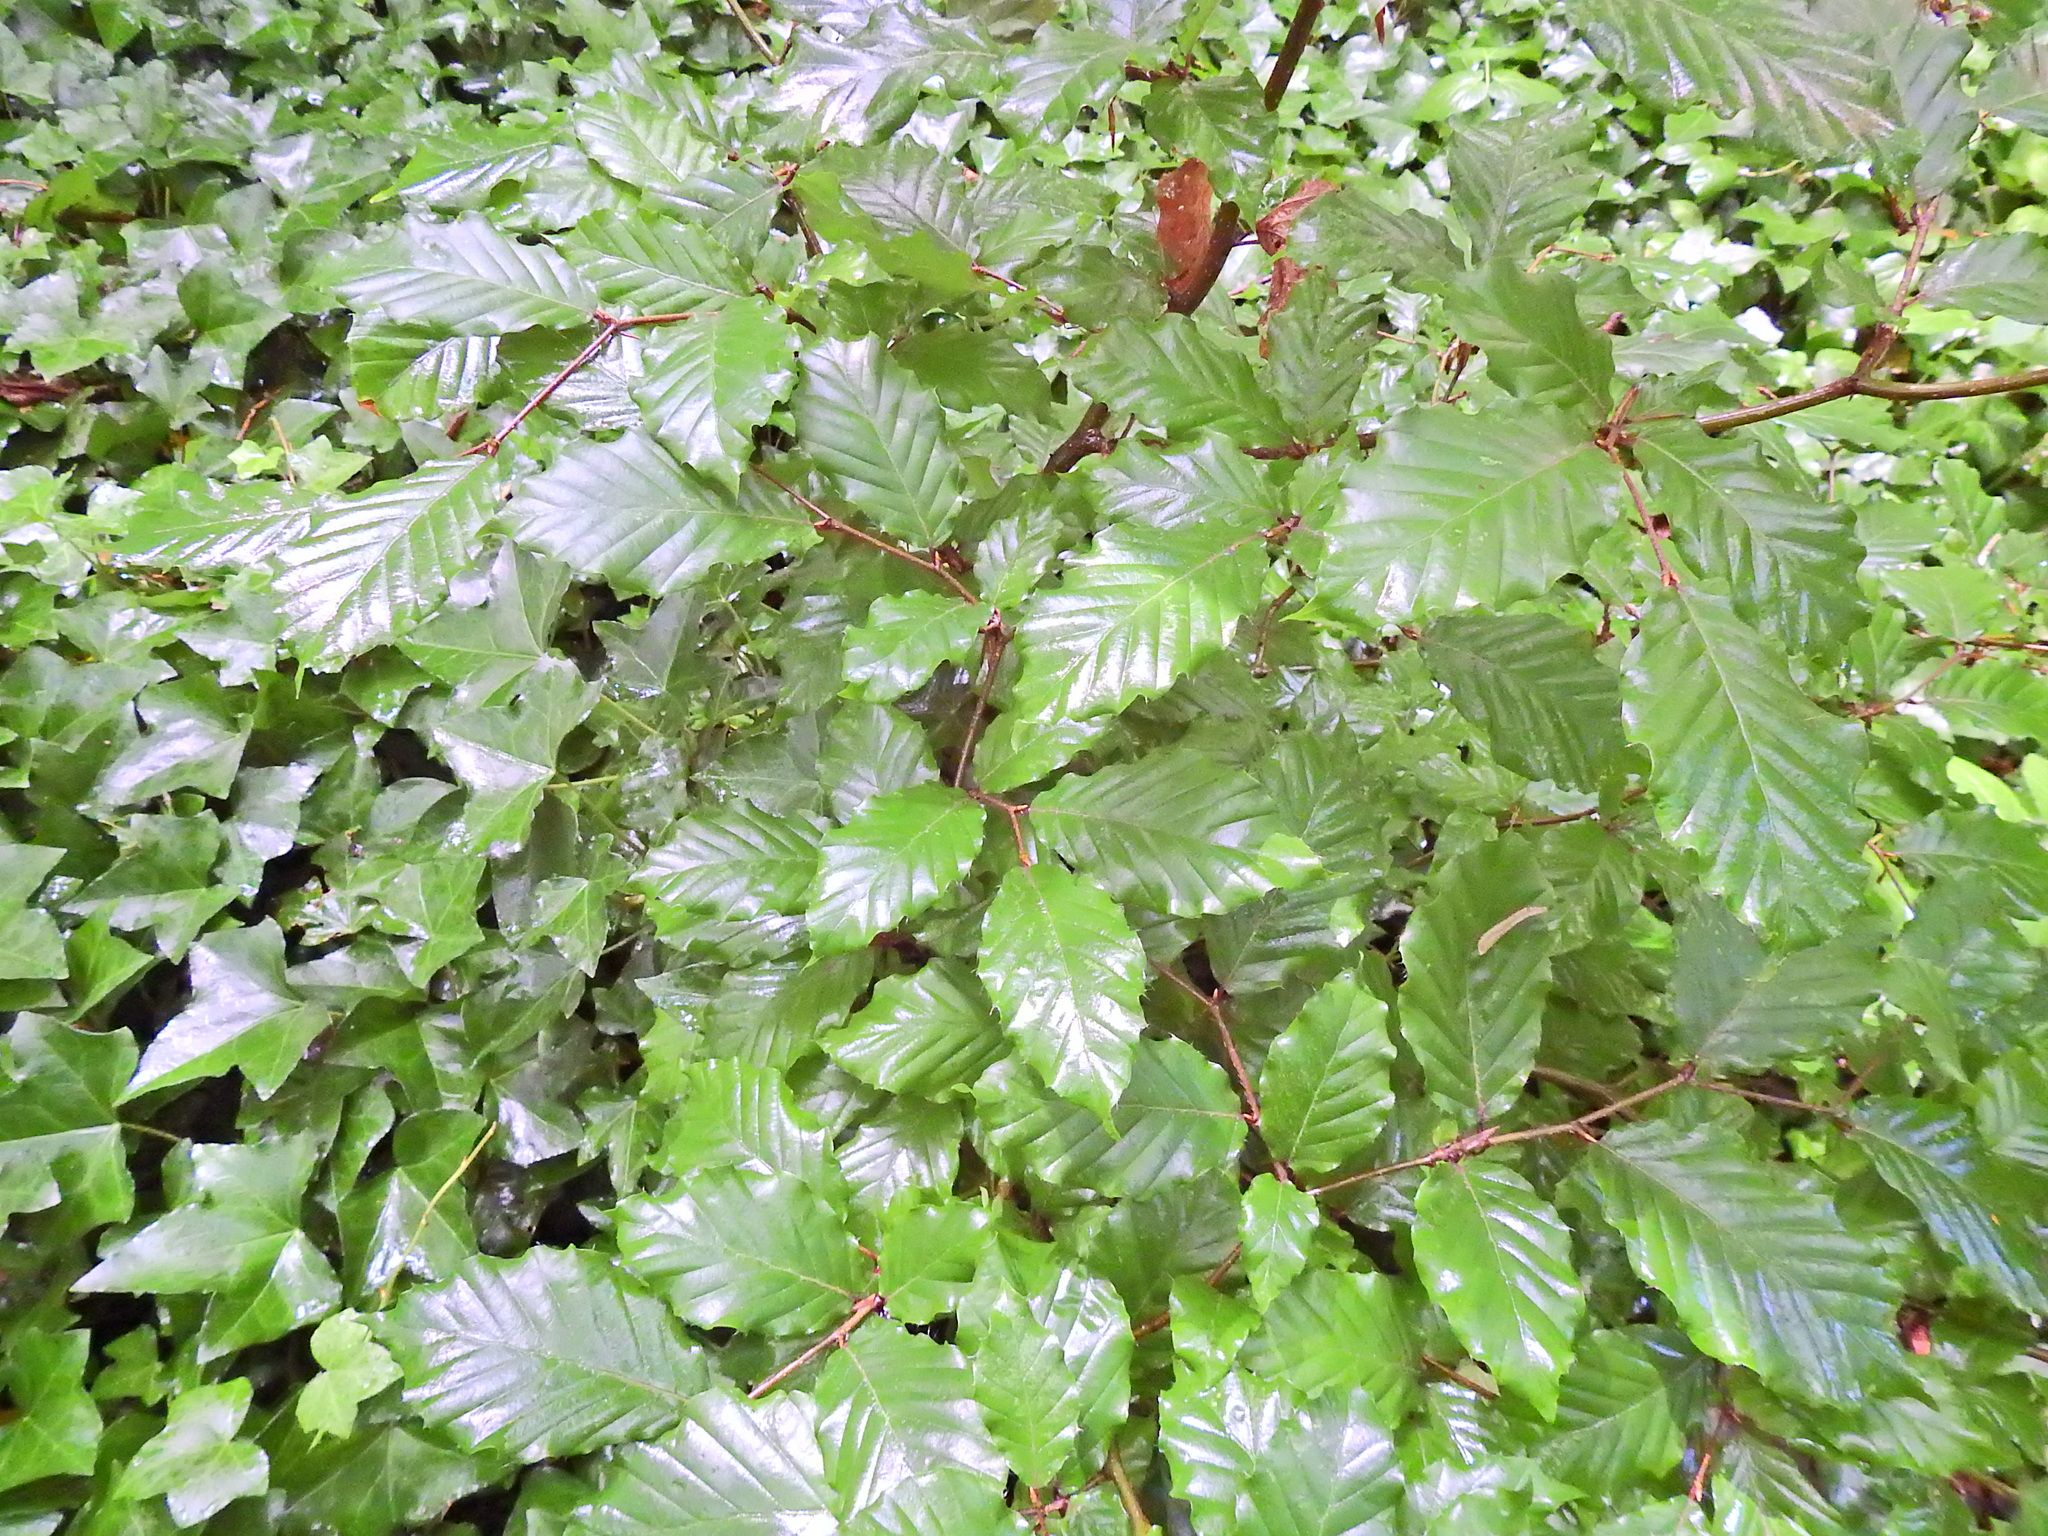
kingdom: Plantae
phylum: Tracheophyta
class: Magnoliopsida
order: Fagales
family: Fagaceae
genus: Fagus
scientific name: Fagus sylvatica
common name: Beech
